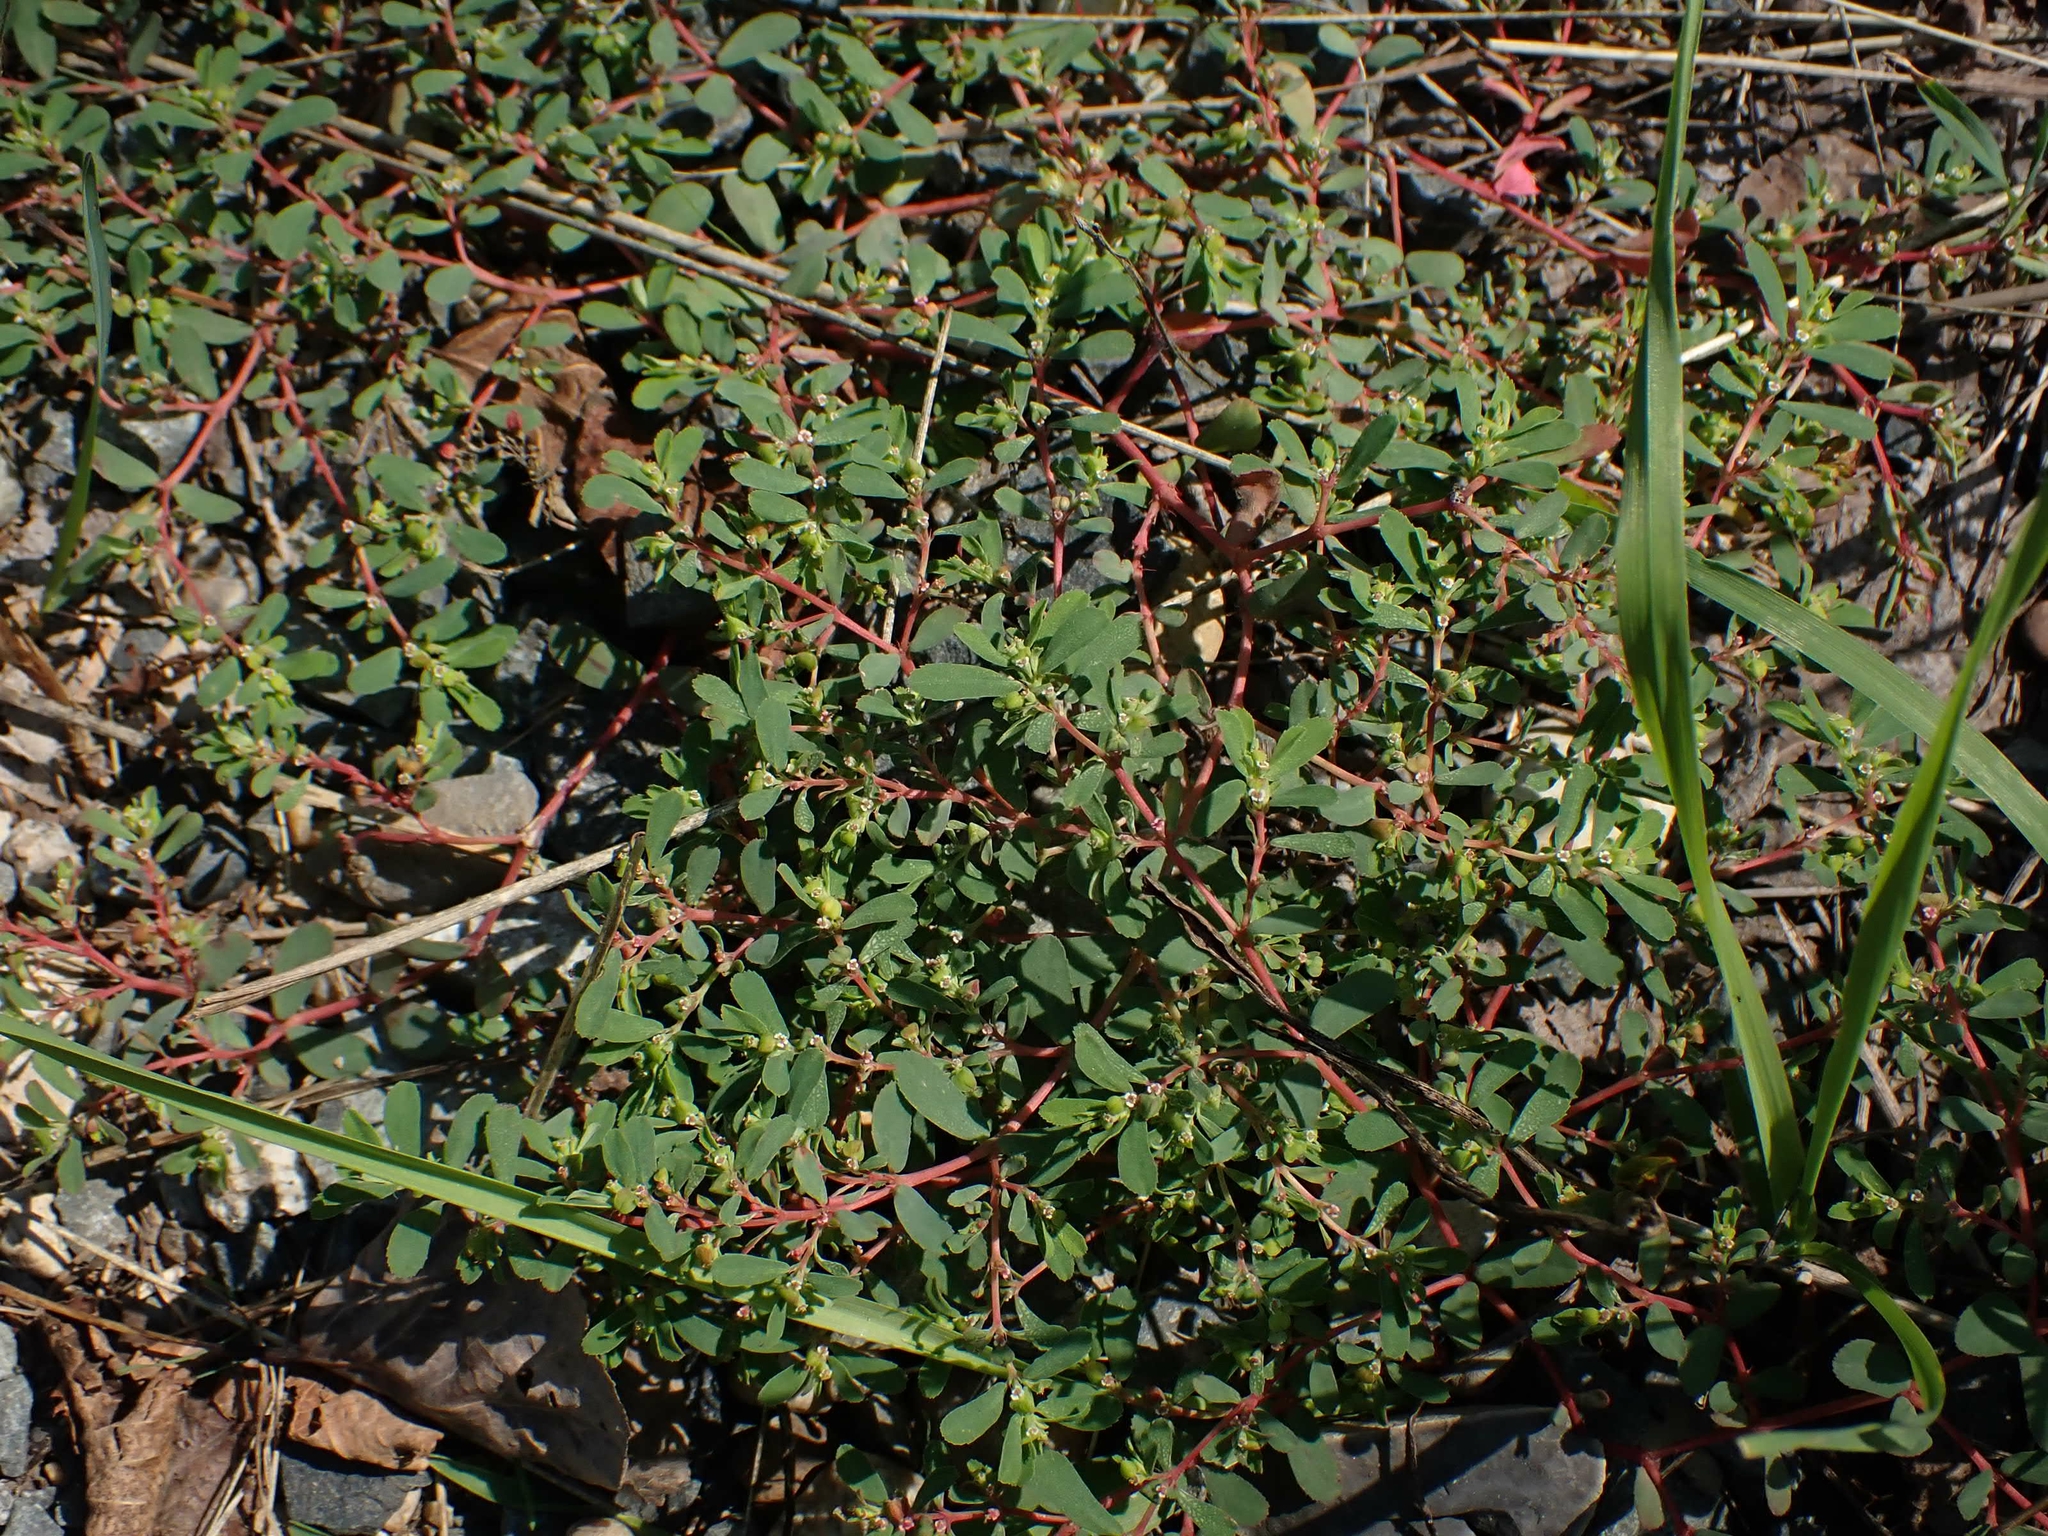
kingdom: Plantae
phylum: Tracheophyta
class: Magnoliopsida
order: Malpighiales
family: Euphorbiaceae
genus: Euphorbia
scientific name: Euphorbia serpillifolia
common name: Thyme-leaf spurge
